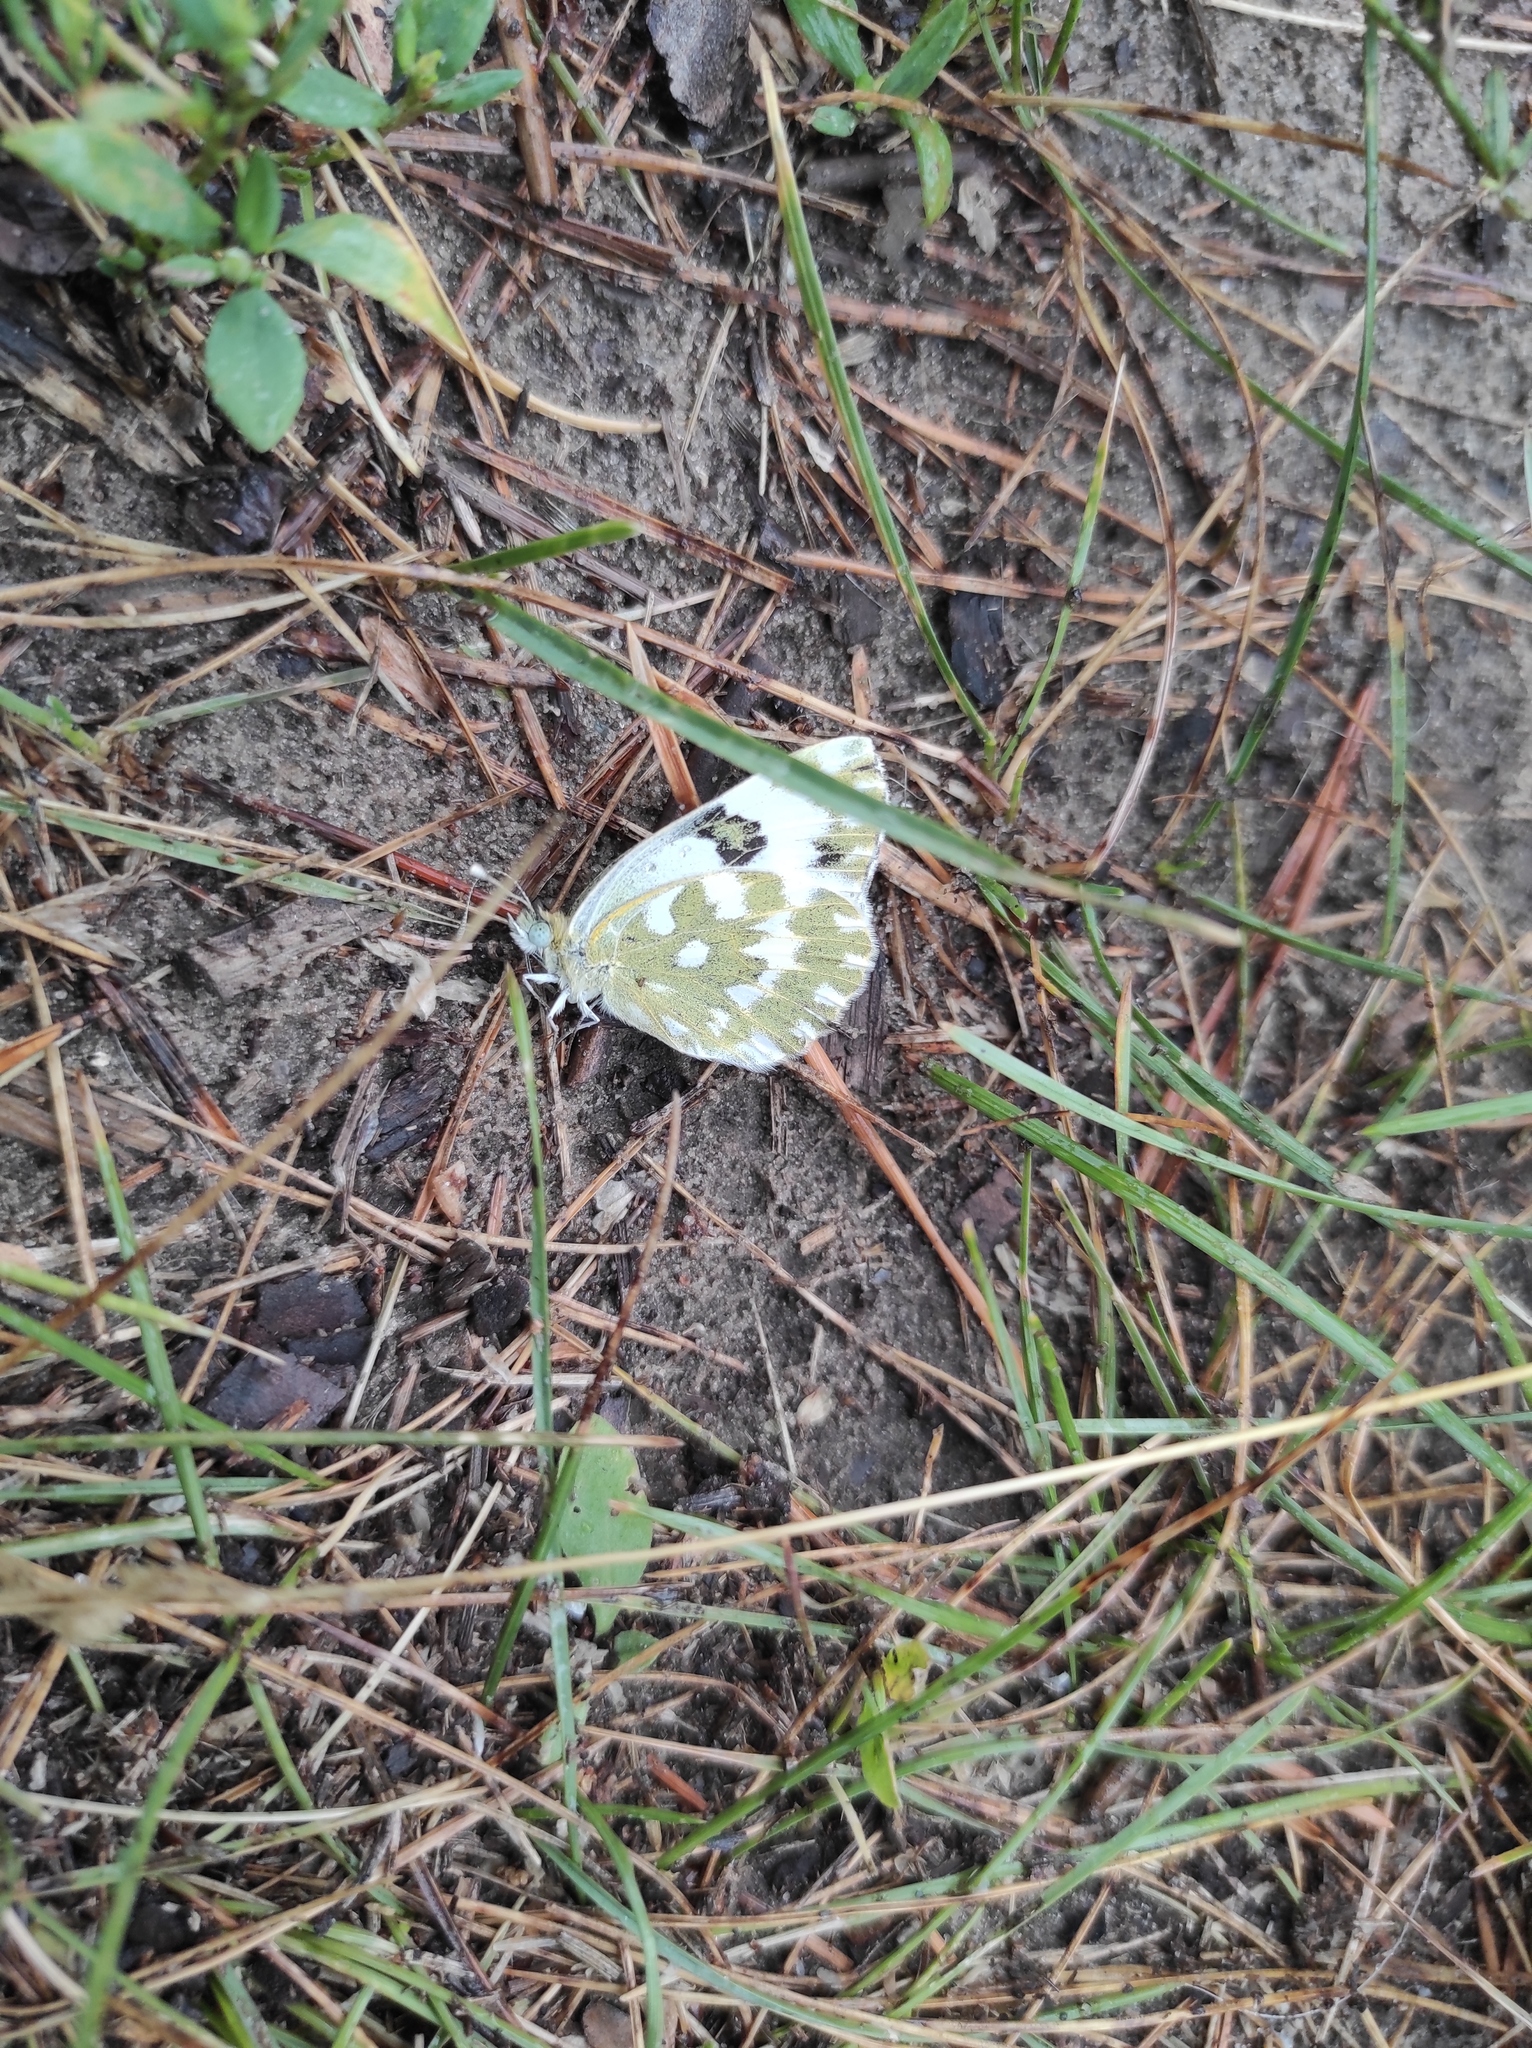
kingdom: Animalia
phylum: Arthropoda
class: Insecta
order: Lepidoptera
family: Pieridae
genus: Pontia
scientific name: Pontia edusa
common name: Eastern bath white
